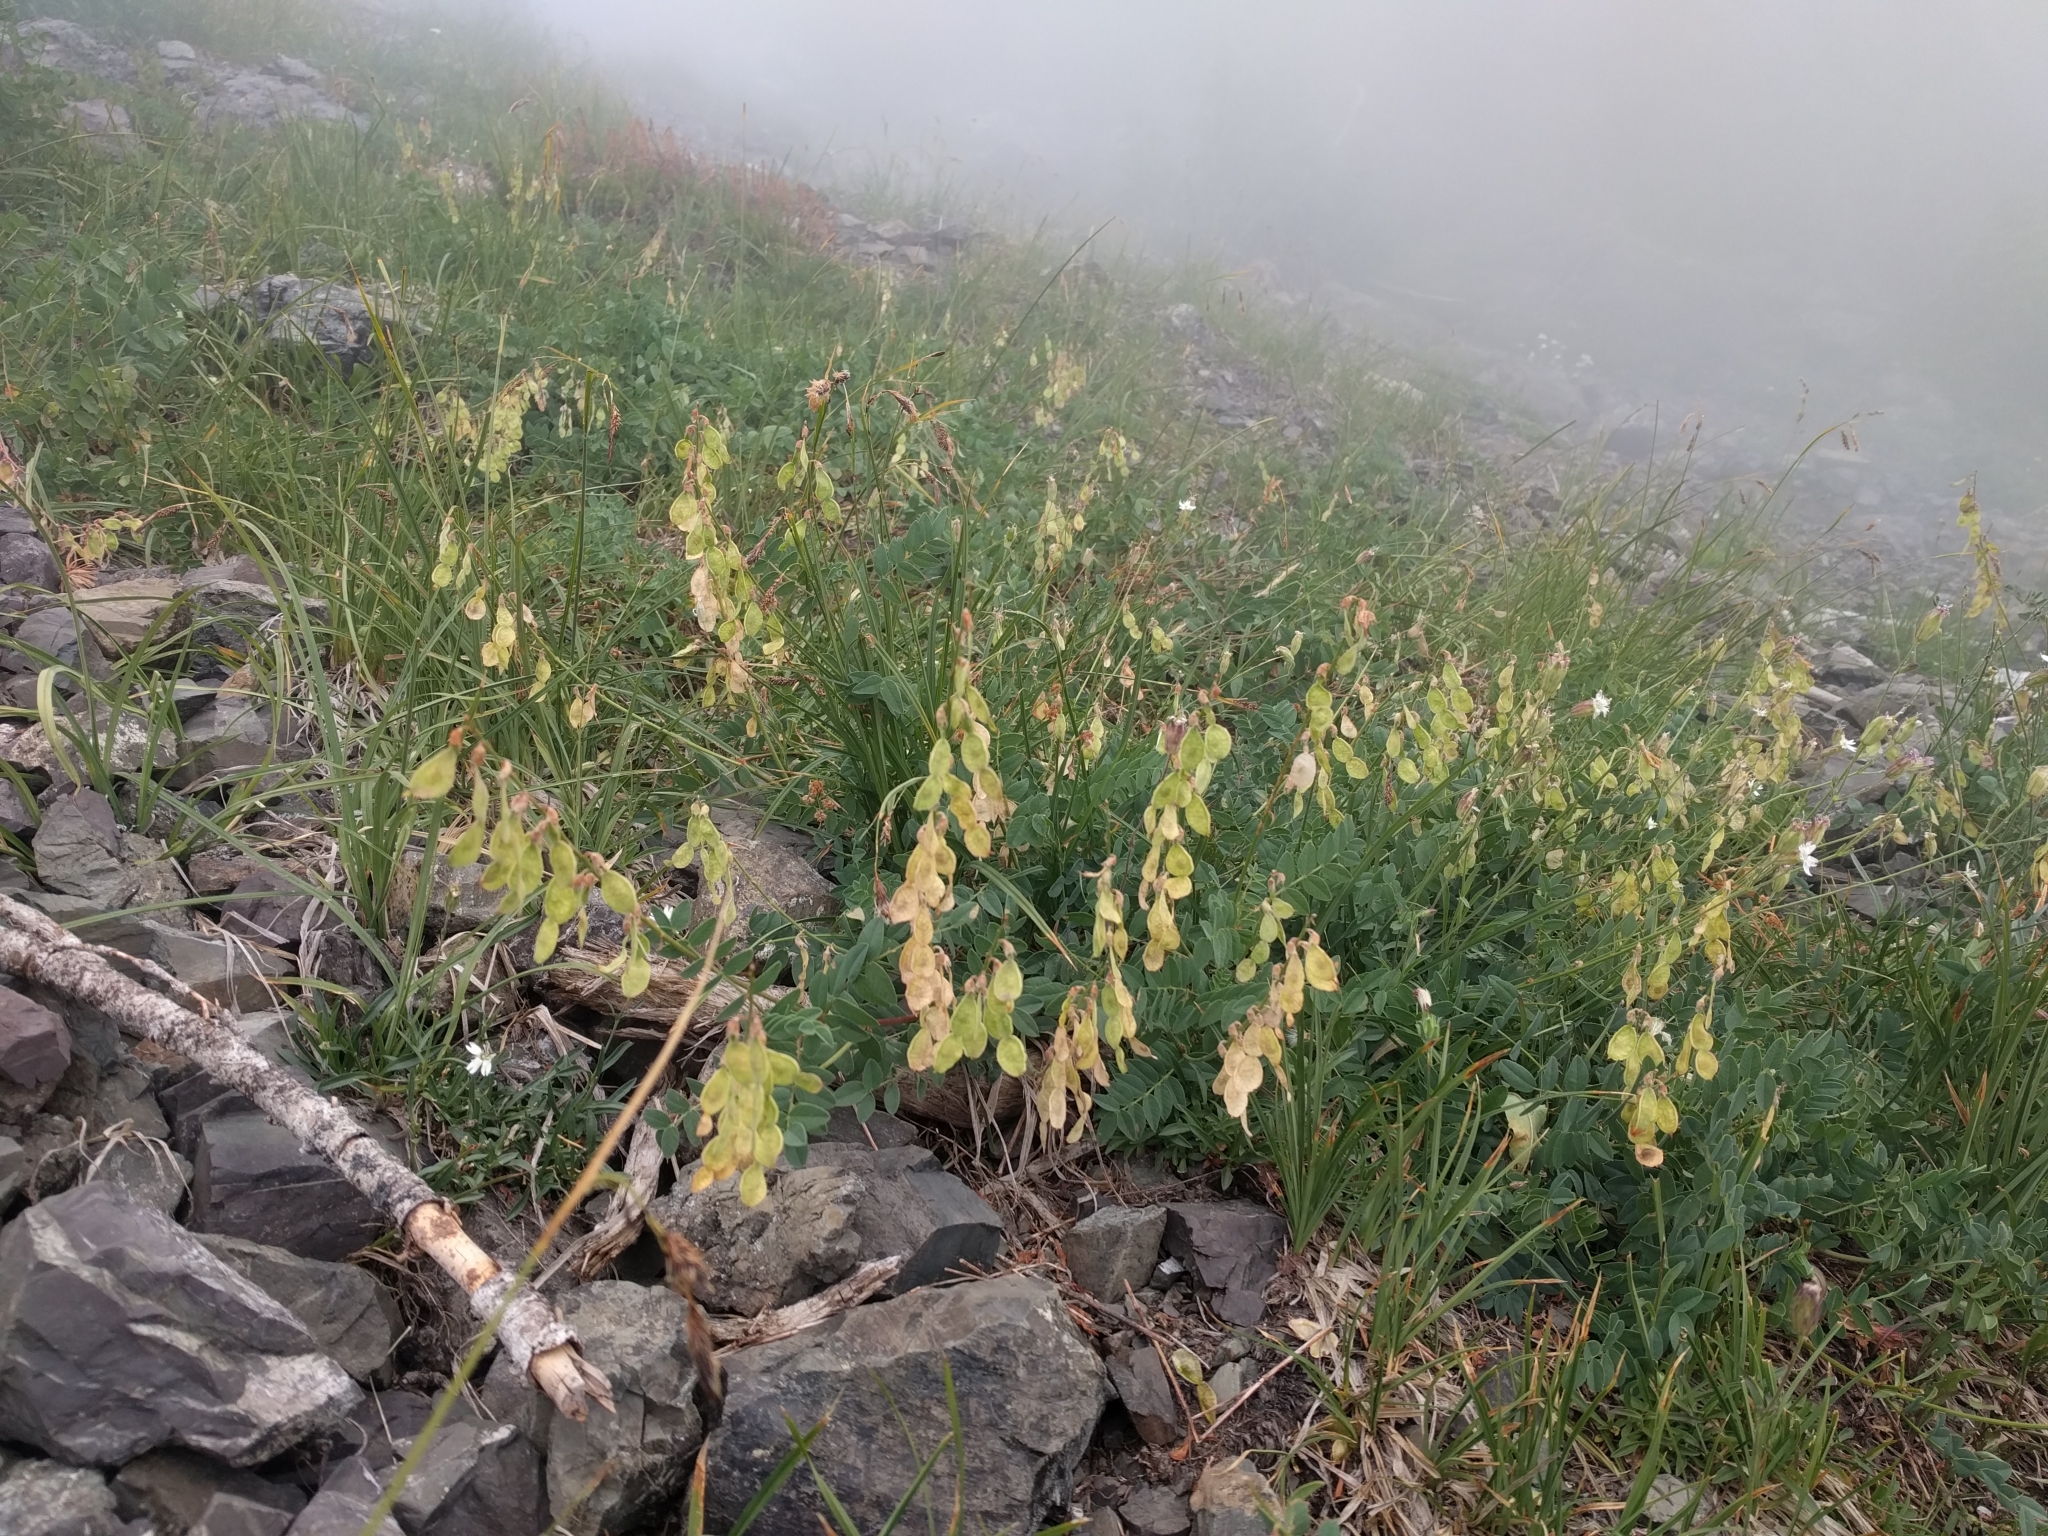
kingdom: Plantae
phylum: Tracheophyta
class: Magnoliopsida
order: Fabales
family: Fabaceae
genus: Hedysarum
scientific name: Hedysarum occidentale
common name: Western hedysarum
